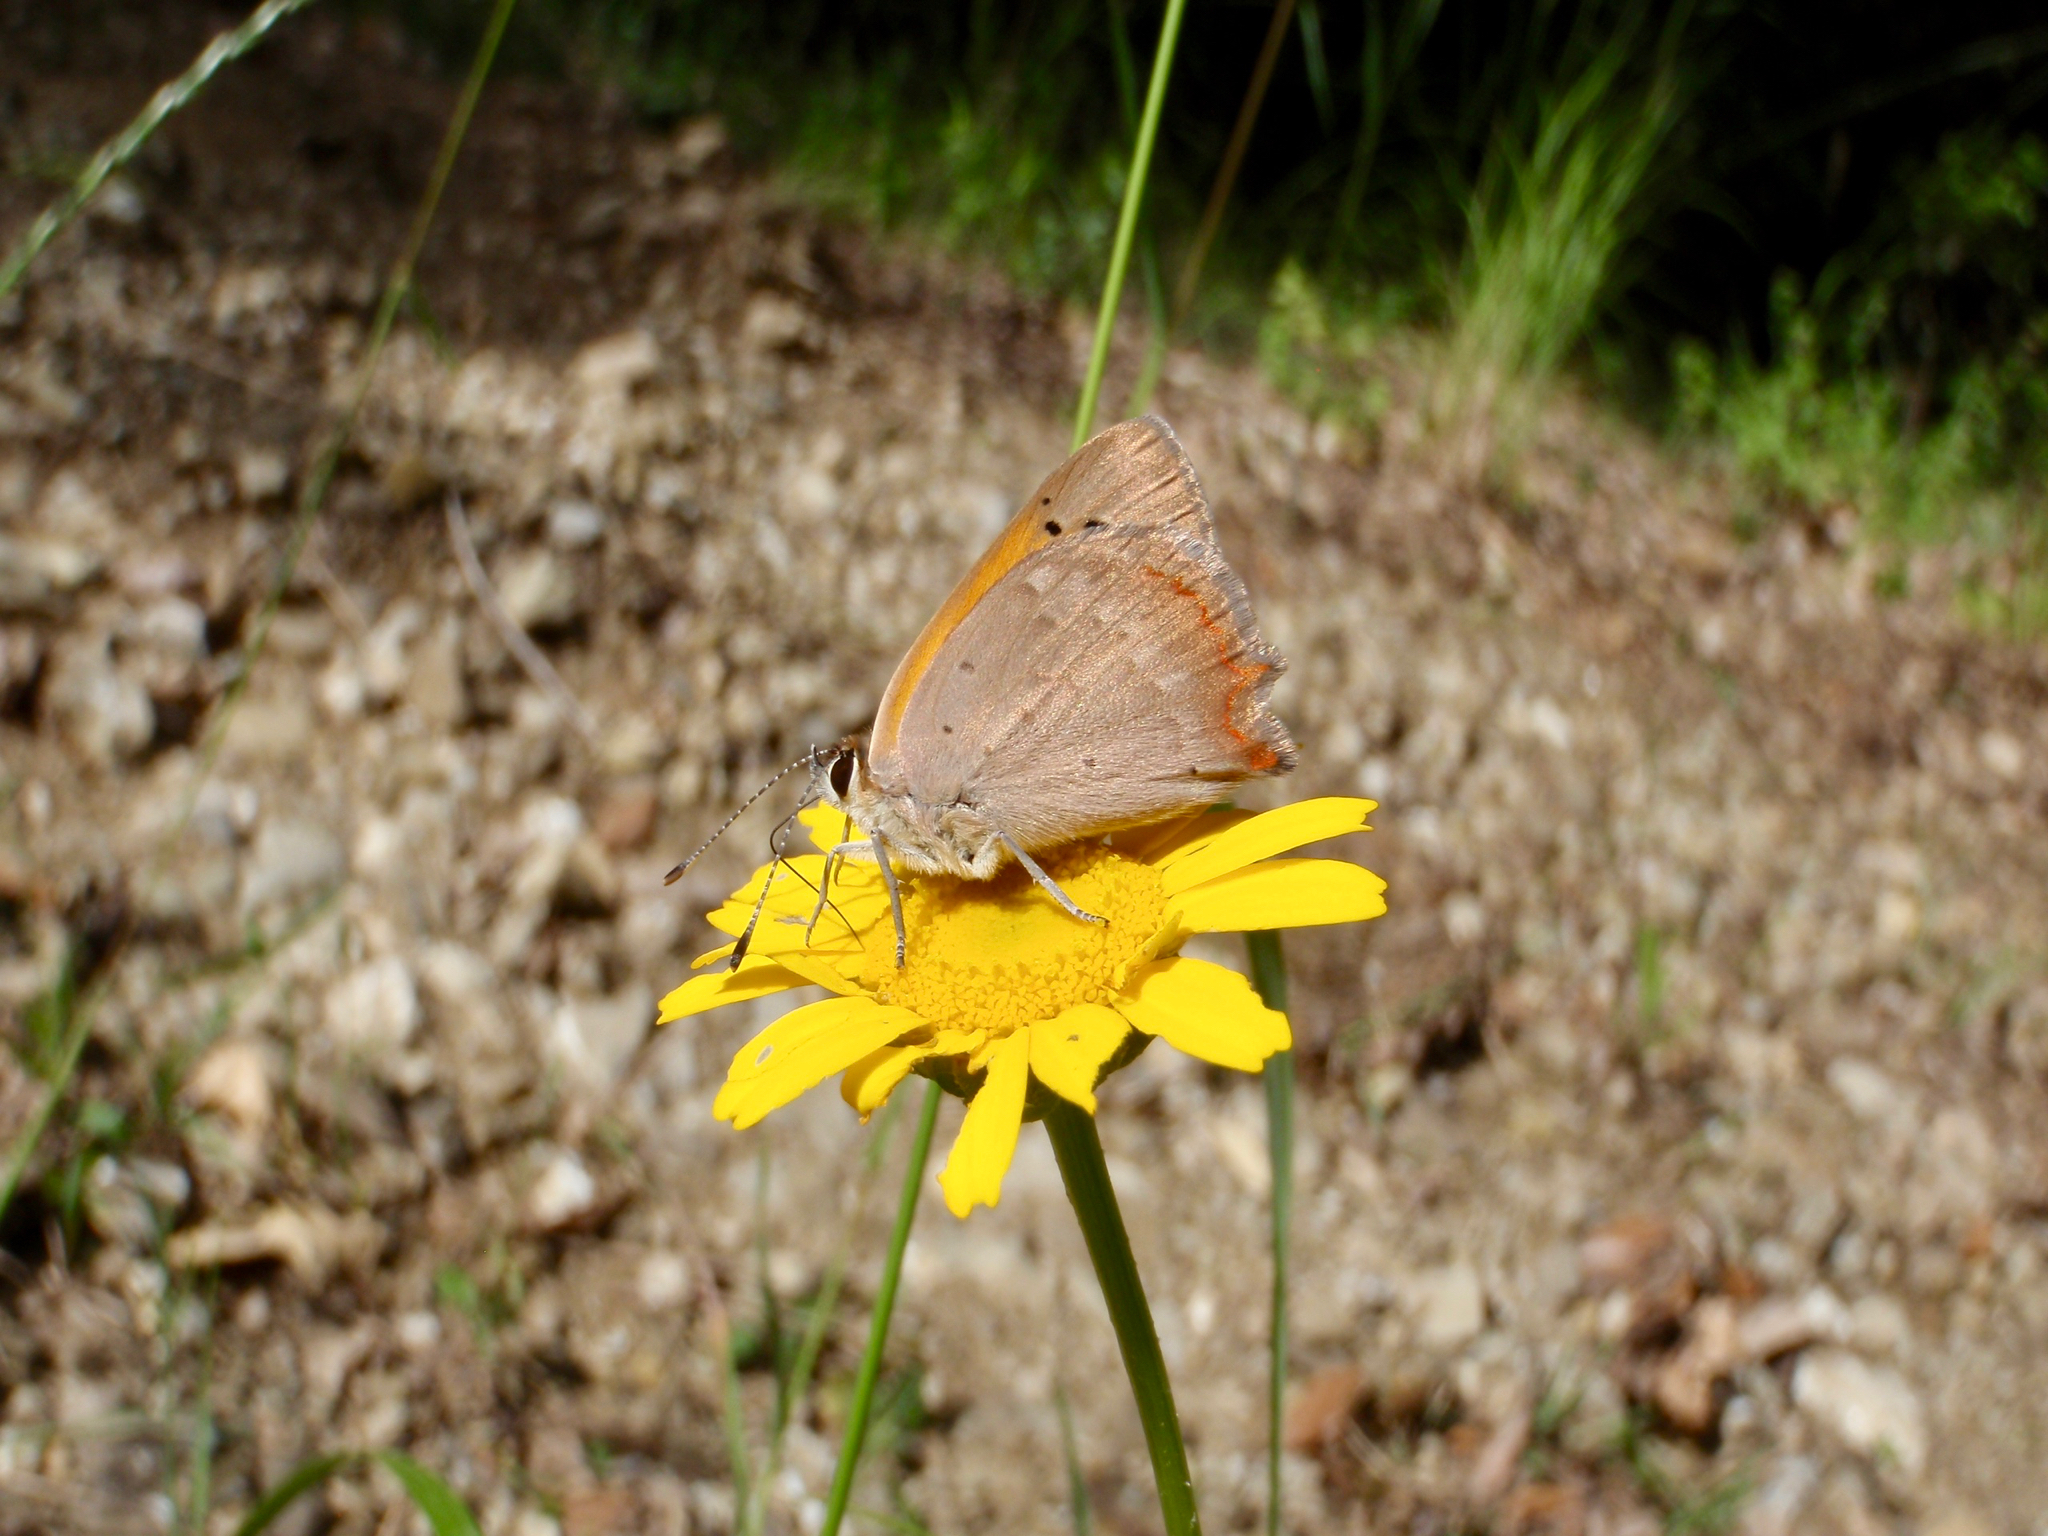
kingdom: Animalia
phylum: Arthropoda
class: Insecta
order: Lepidoptera
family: Lycaenidae
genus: Lycaena
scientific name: Lycaena phlaeas
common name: Small copper
